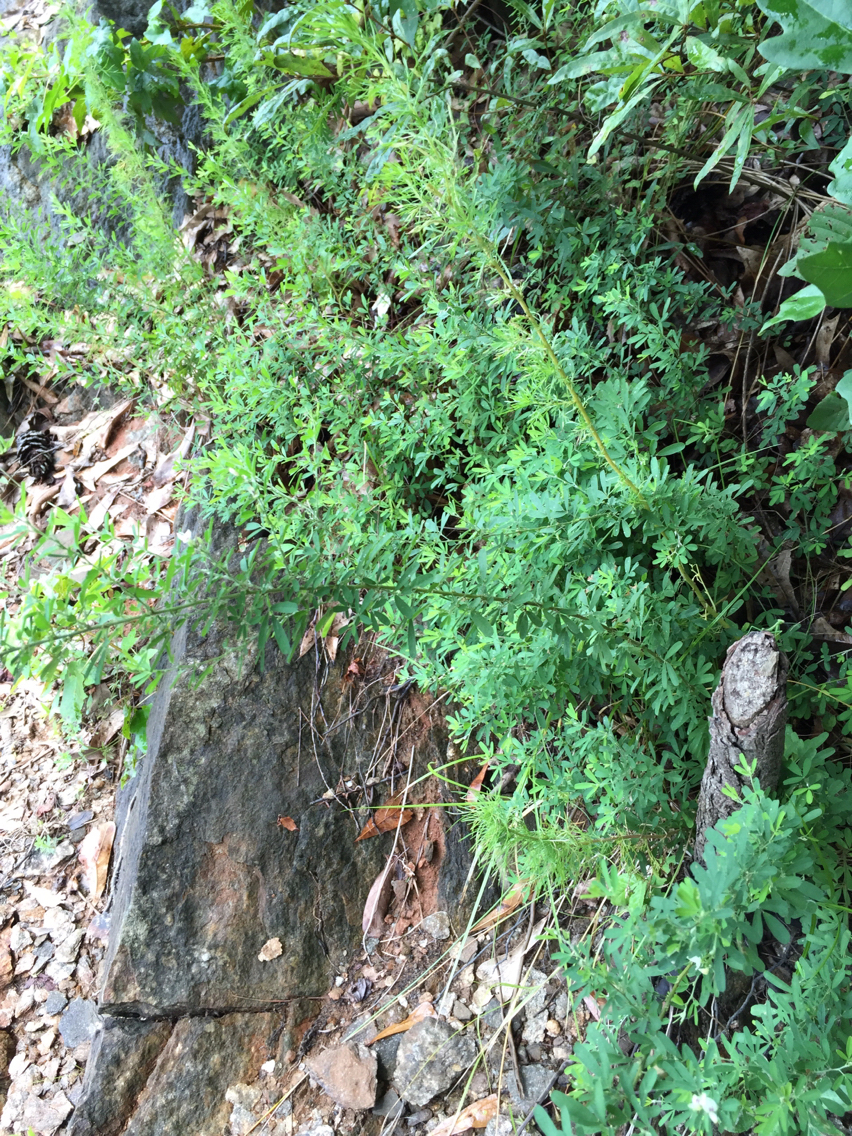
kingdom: Plantae
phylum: Tracheophyta
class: Magnoliopsida
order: Fabales
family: Fabaceae
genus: Lespedeza
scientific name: Lespedeza cuneata
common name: Chinese bush-clover
